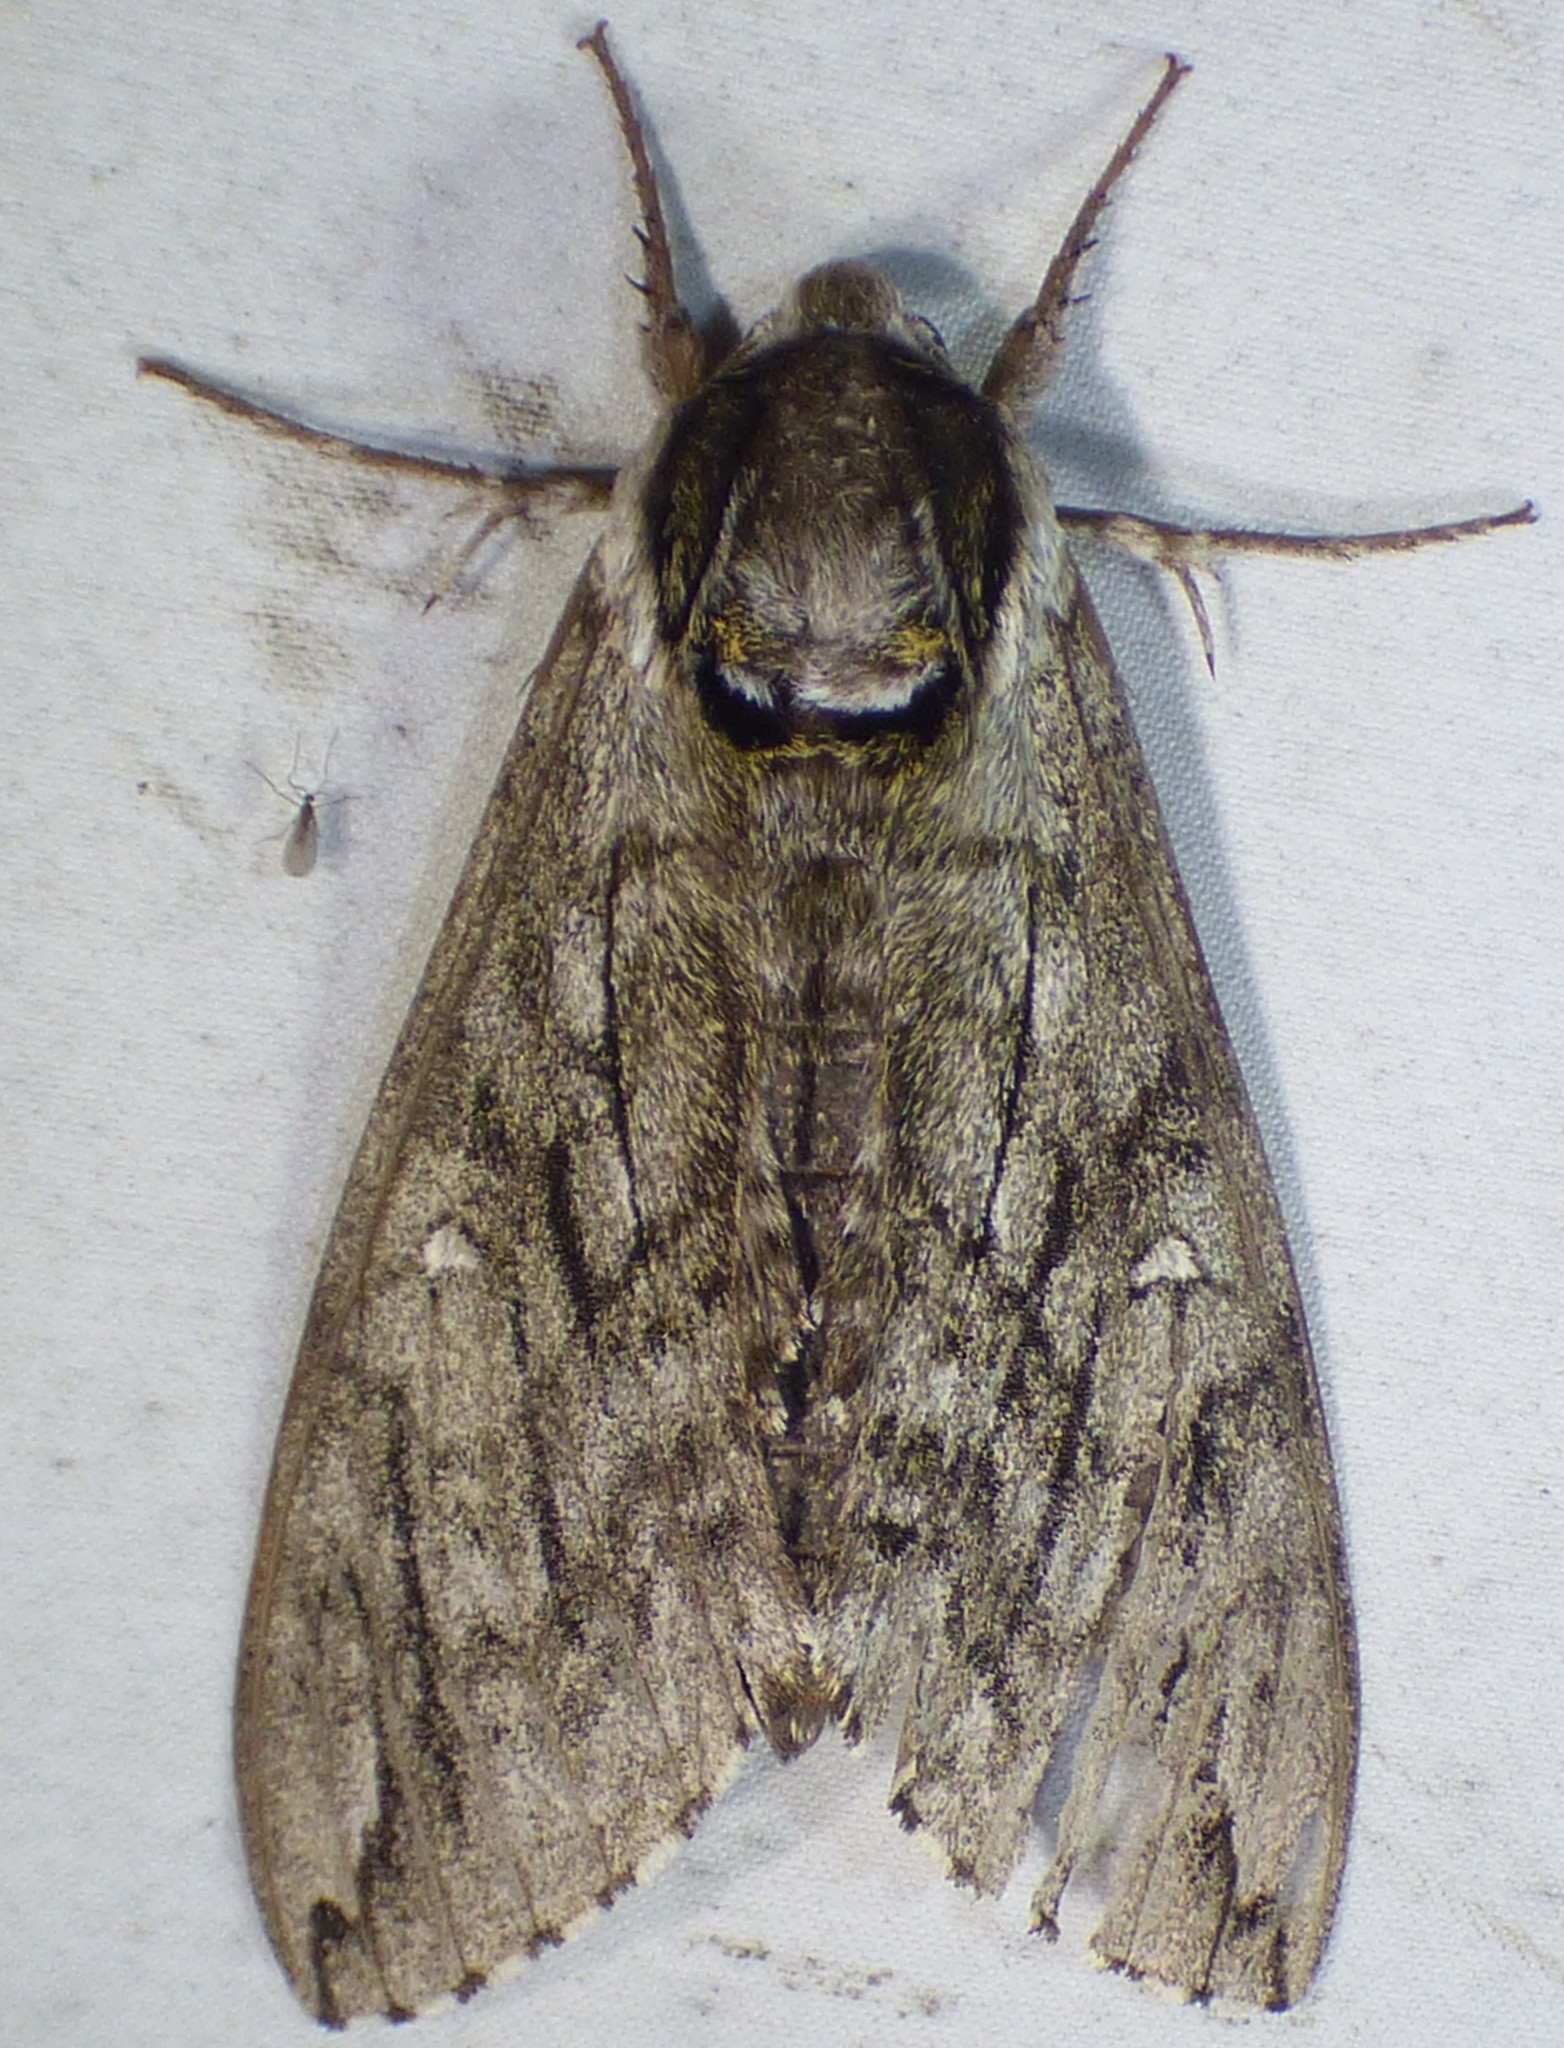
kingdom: Animalia
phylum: Arthropoda
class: Insecta
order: Lepidoptera
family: Sphingidae
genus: Ceratomia
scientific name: Ceratomia undulosa
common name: Waved sphinx
